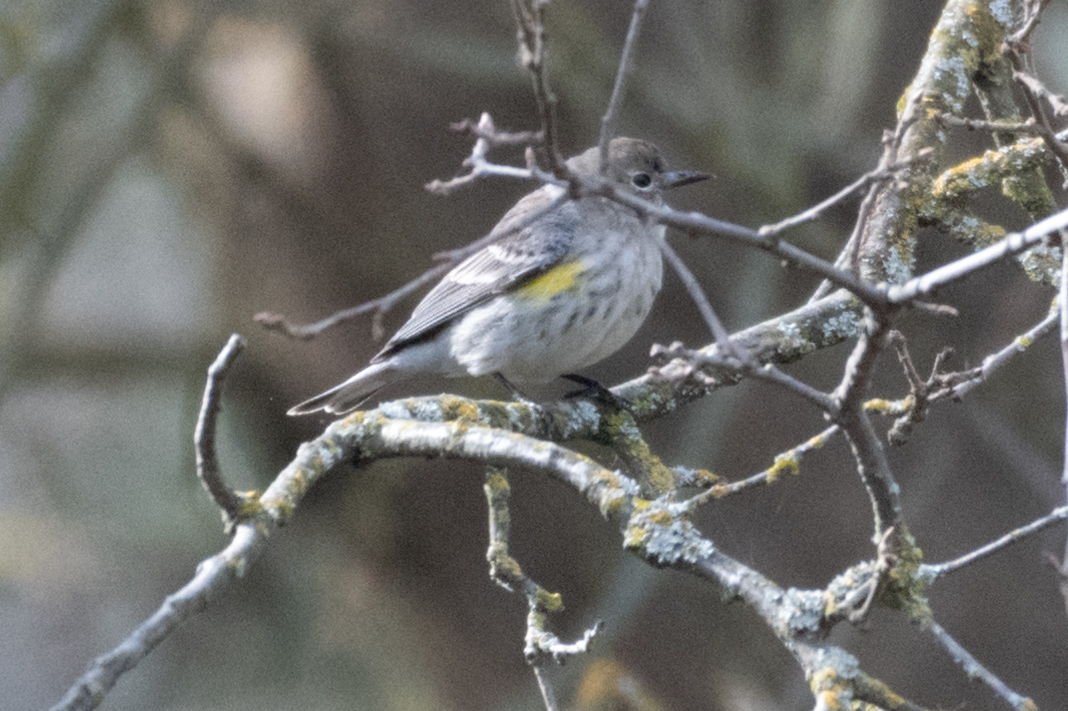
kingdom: Animalia
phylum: Chordata
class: Aves
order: Passeriformes
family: Parulidae
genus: Setophaga
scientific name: Setophaga coronata
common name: Myrtle warbler
